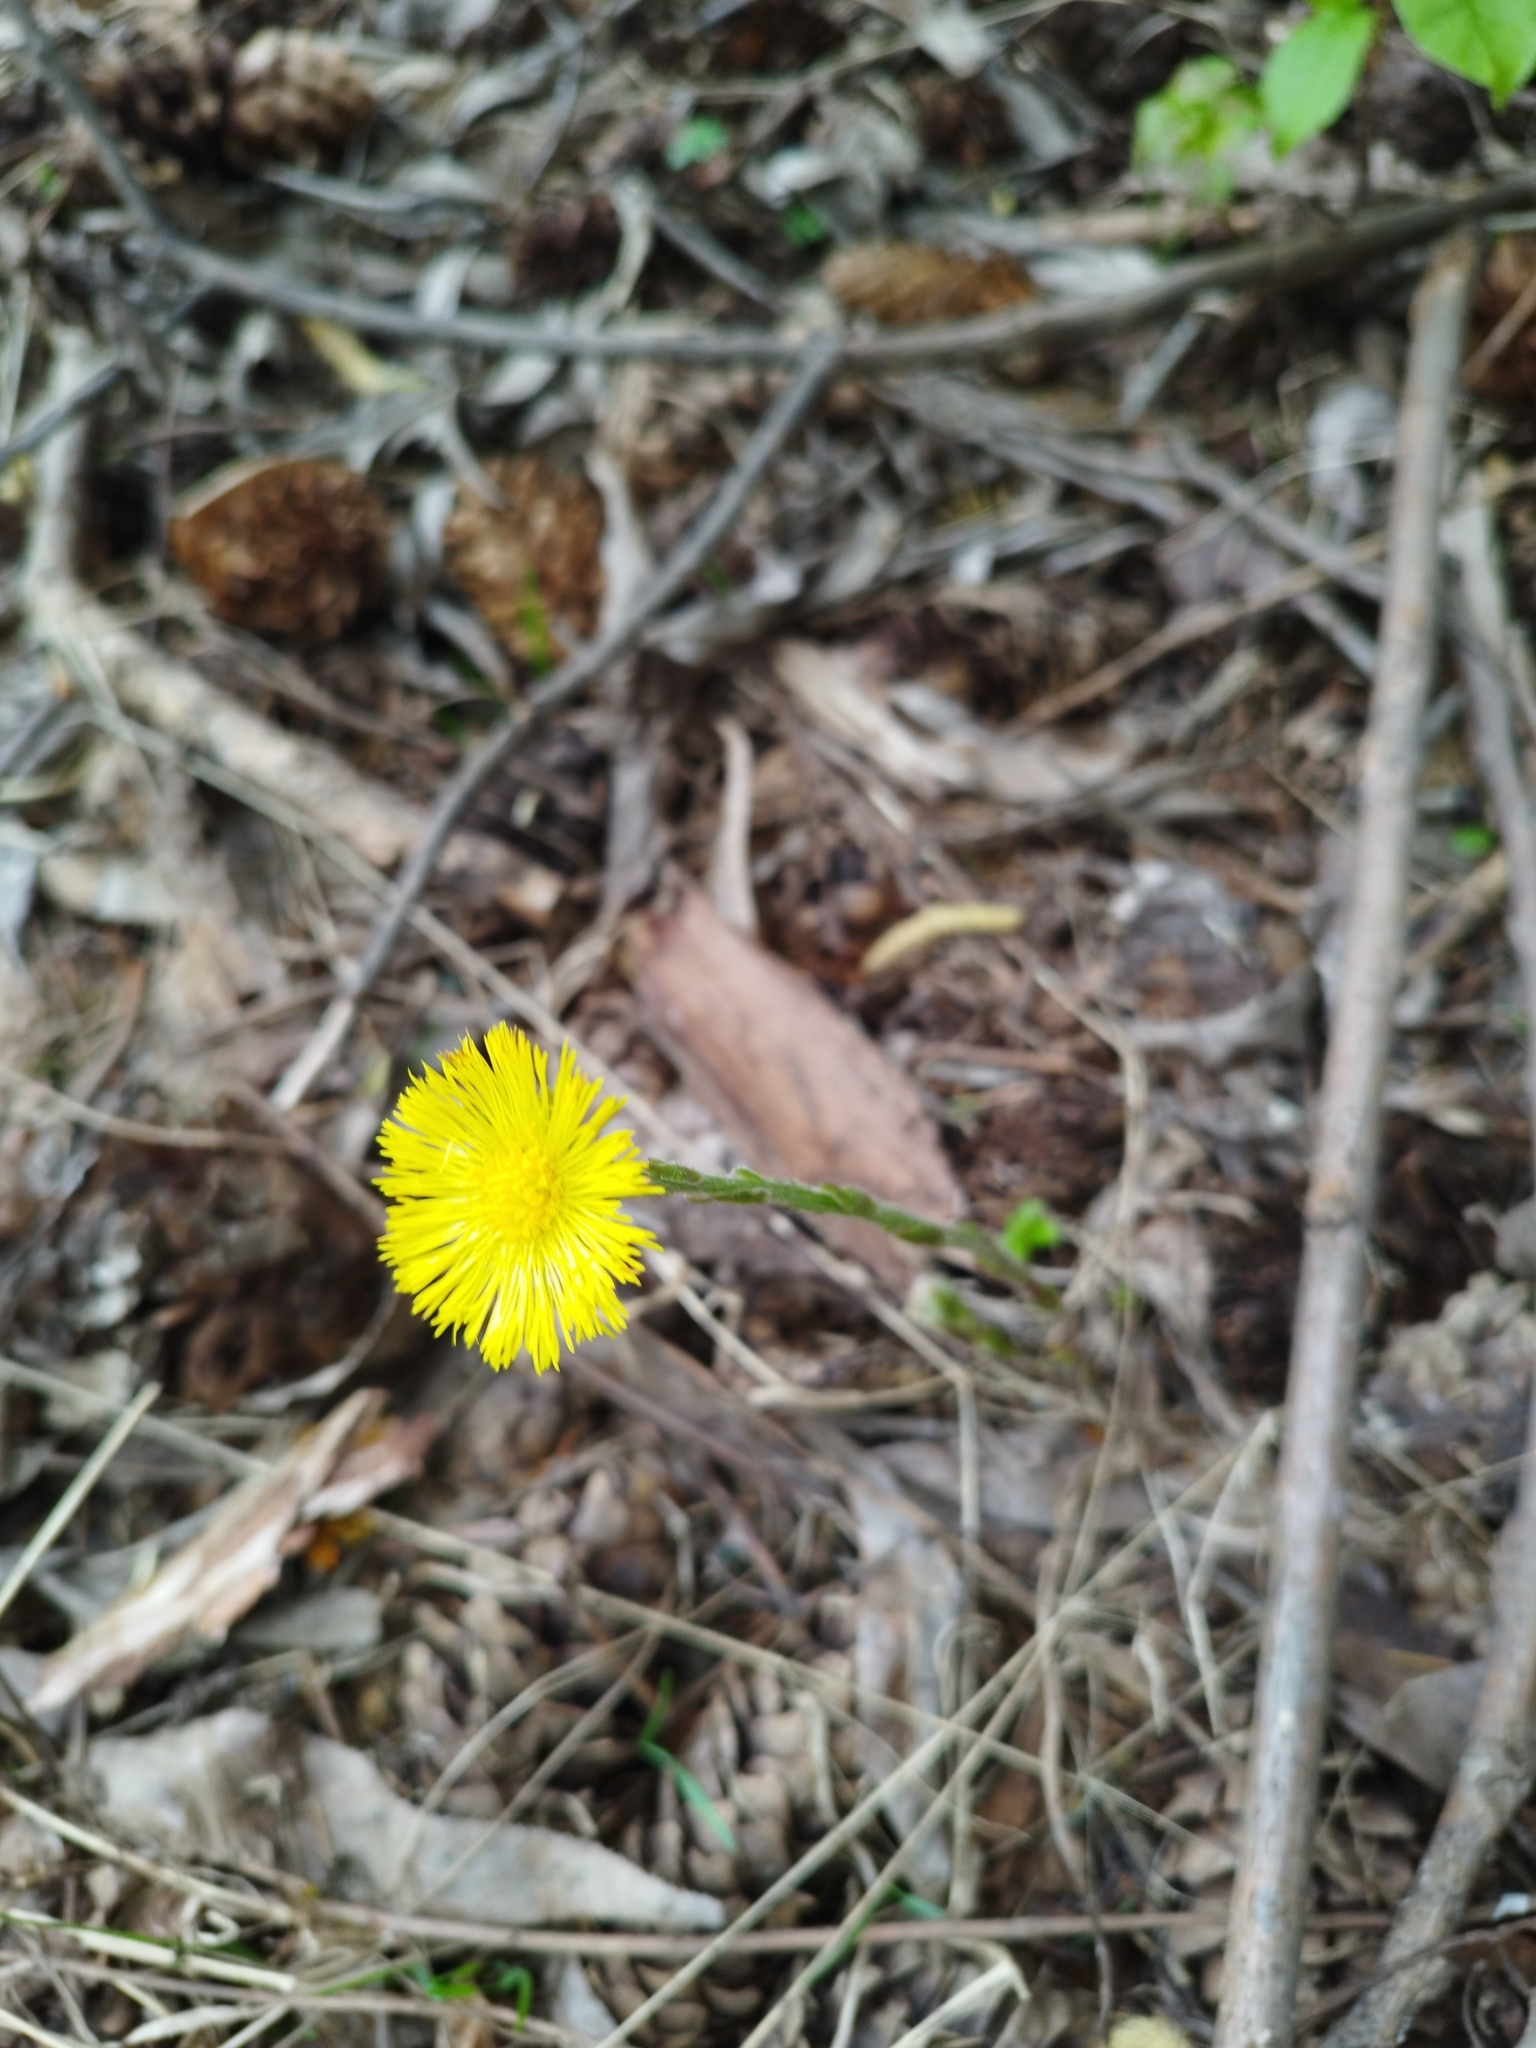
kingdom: Plantae
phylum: Tracheophyta
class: Magnoliopsida
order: Asterales
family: Asteraceae
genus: Tussilago
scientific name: Tussilago farfara
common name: Coltsfoot
